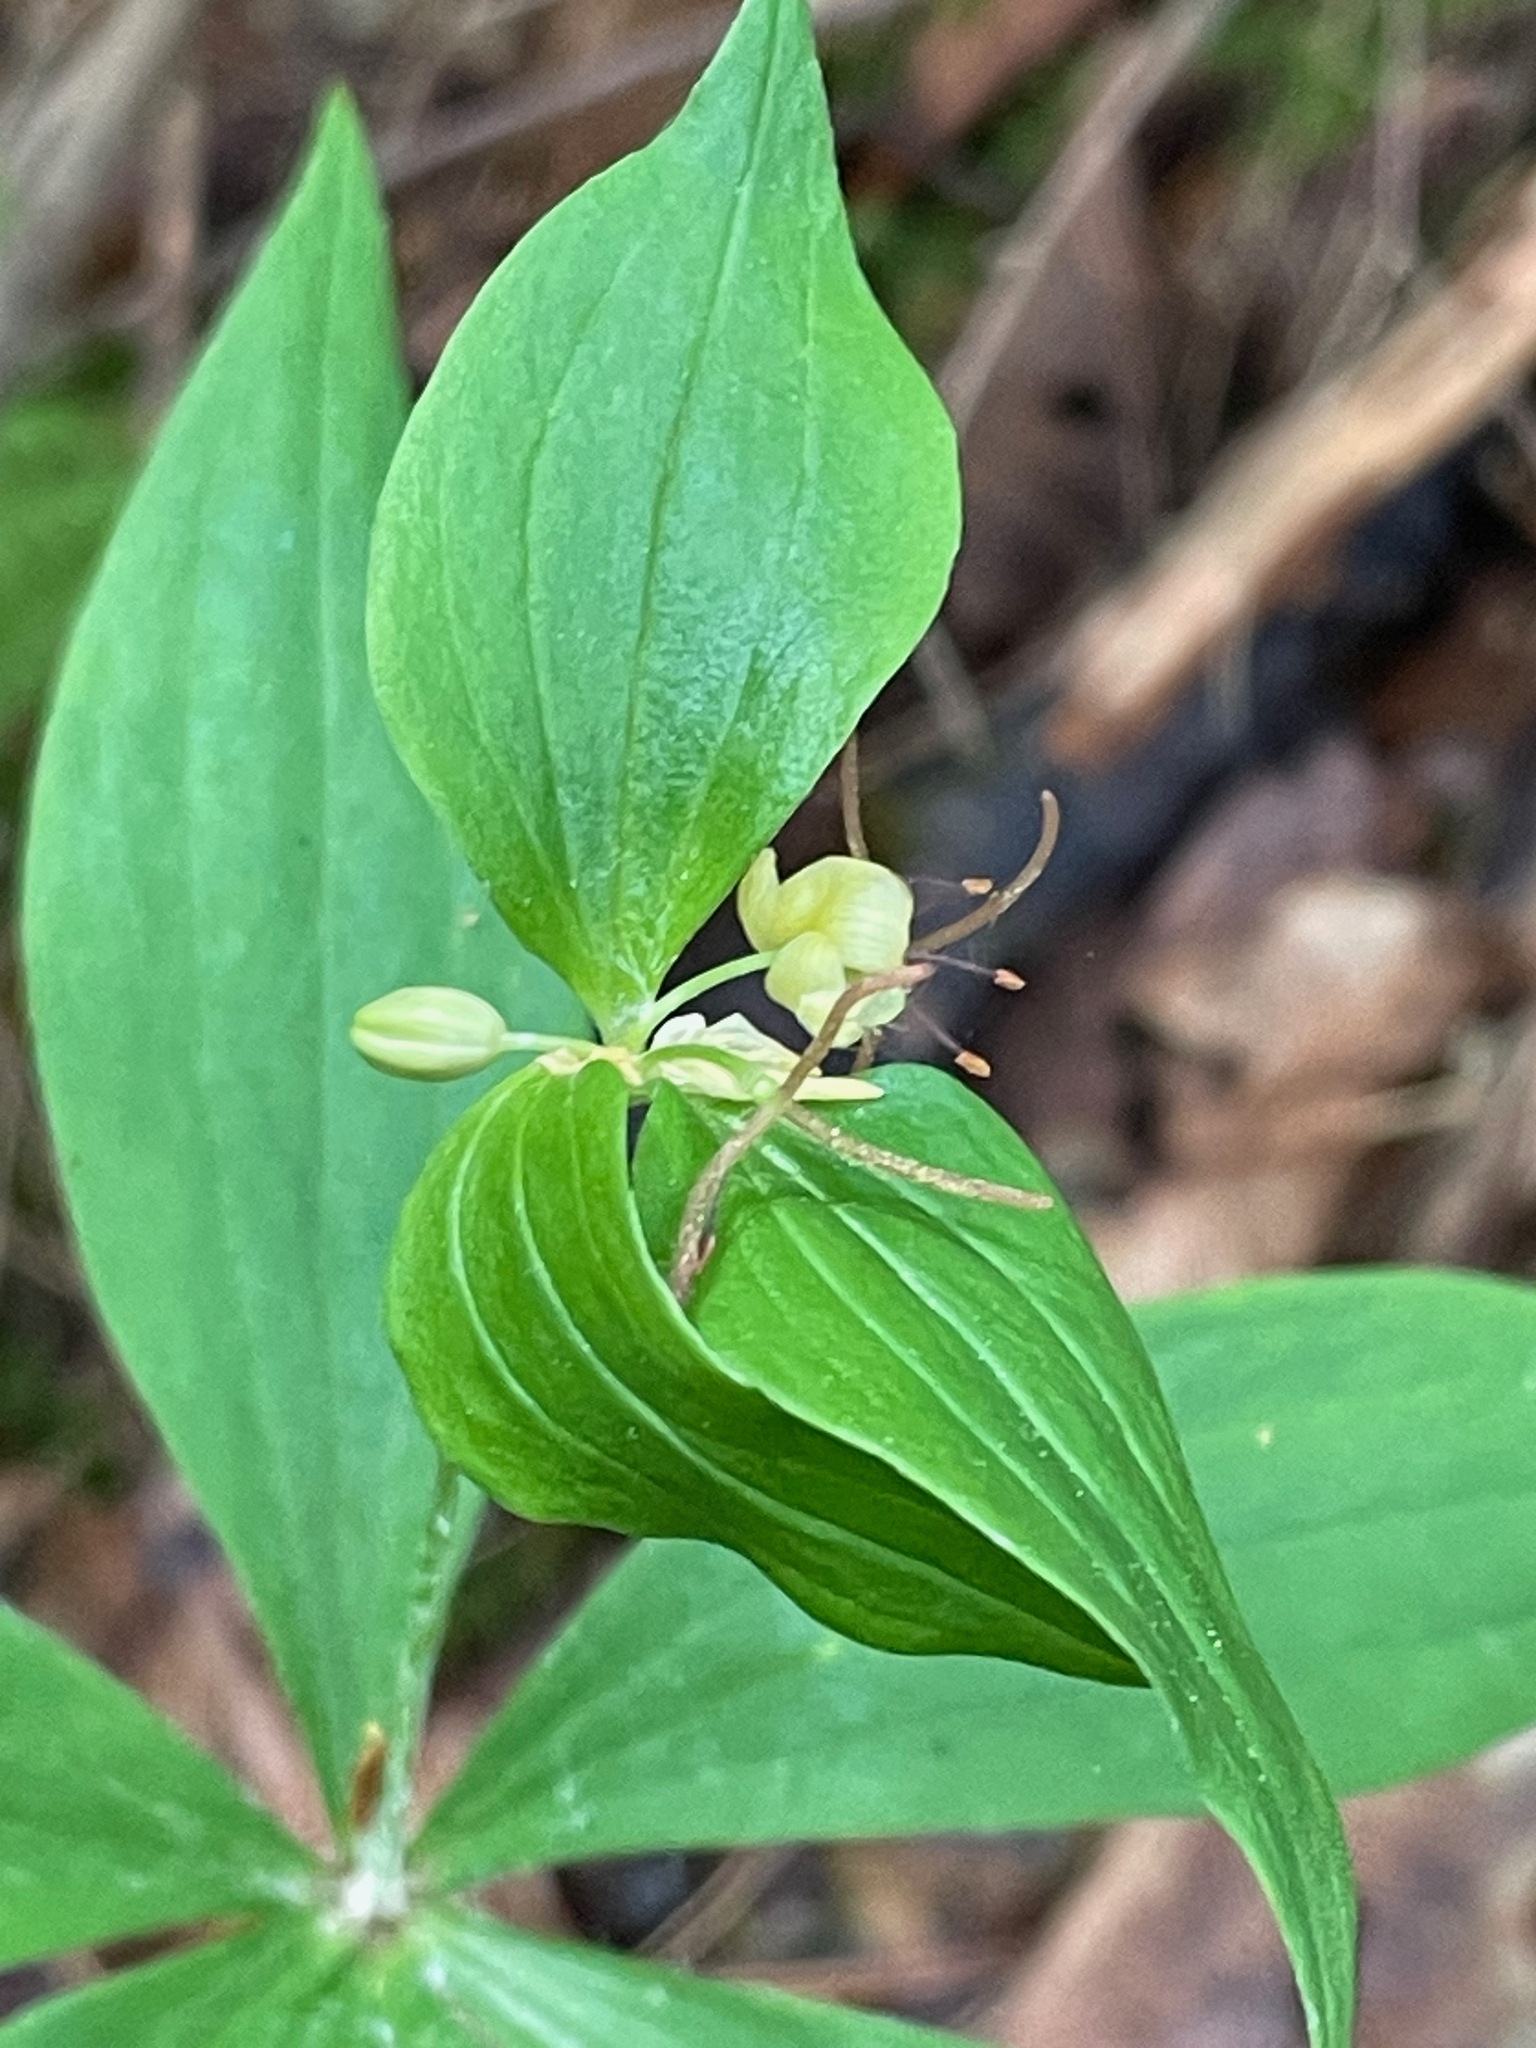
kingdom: Plantae
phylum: Tracheophyta
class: Liliopsida
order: Liliales
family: Liliaceae
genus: Medeola
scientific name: Medeola virginiana
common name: Indian cucumber-root
